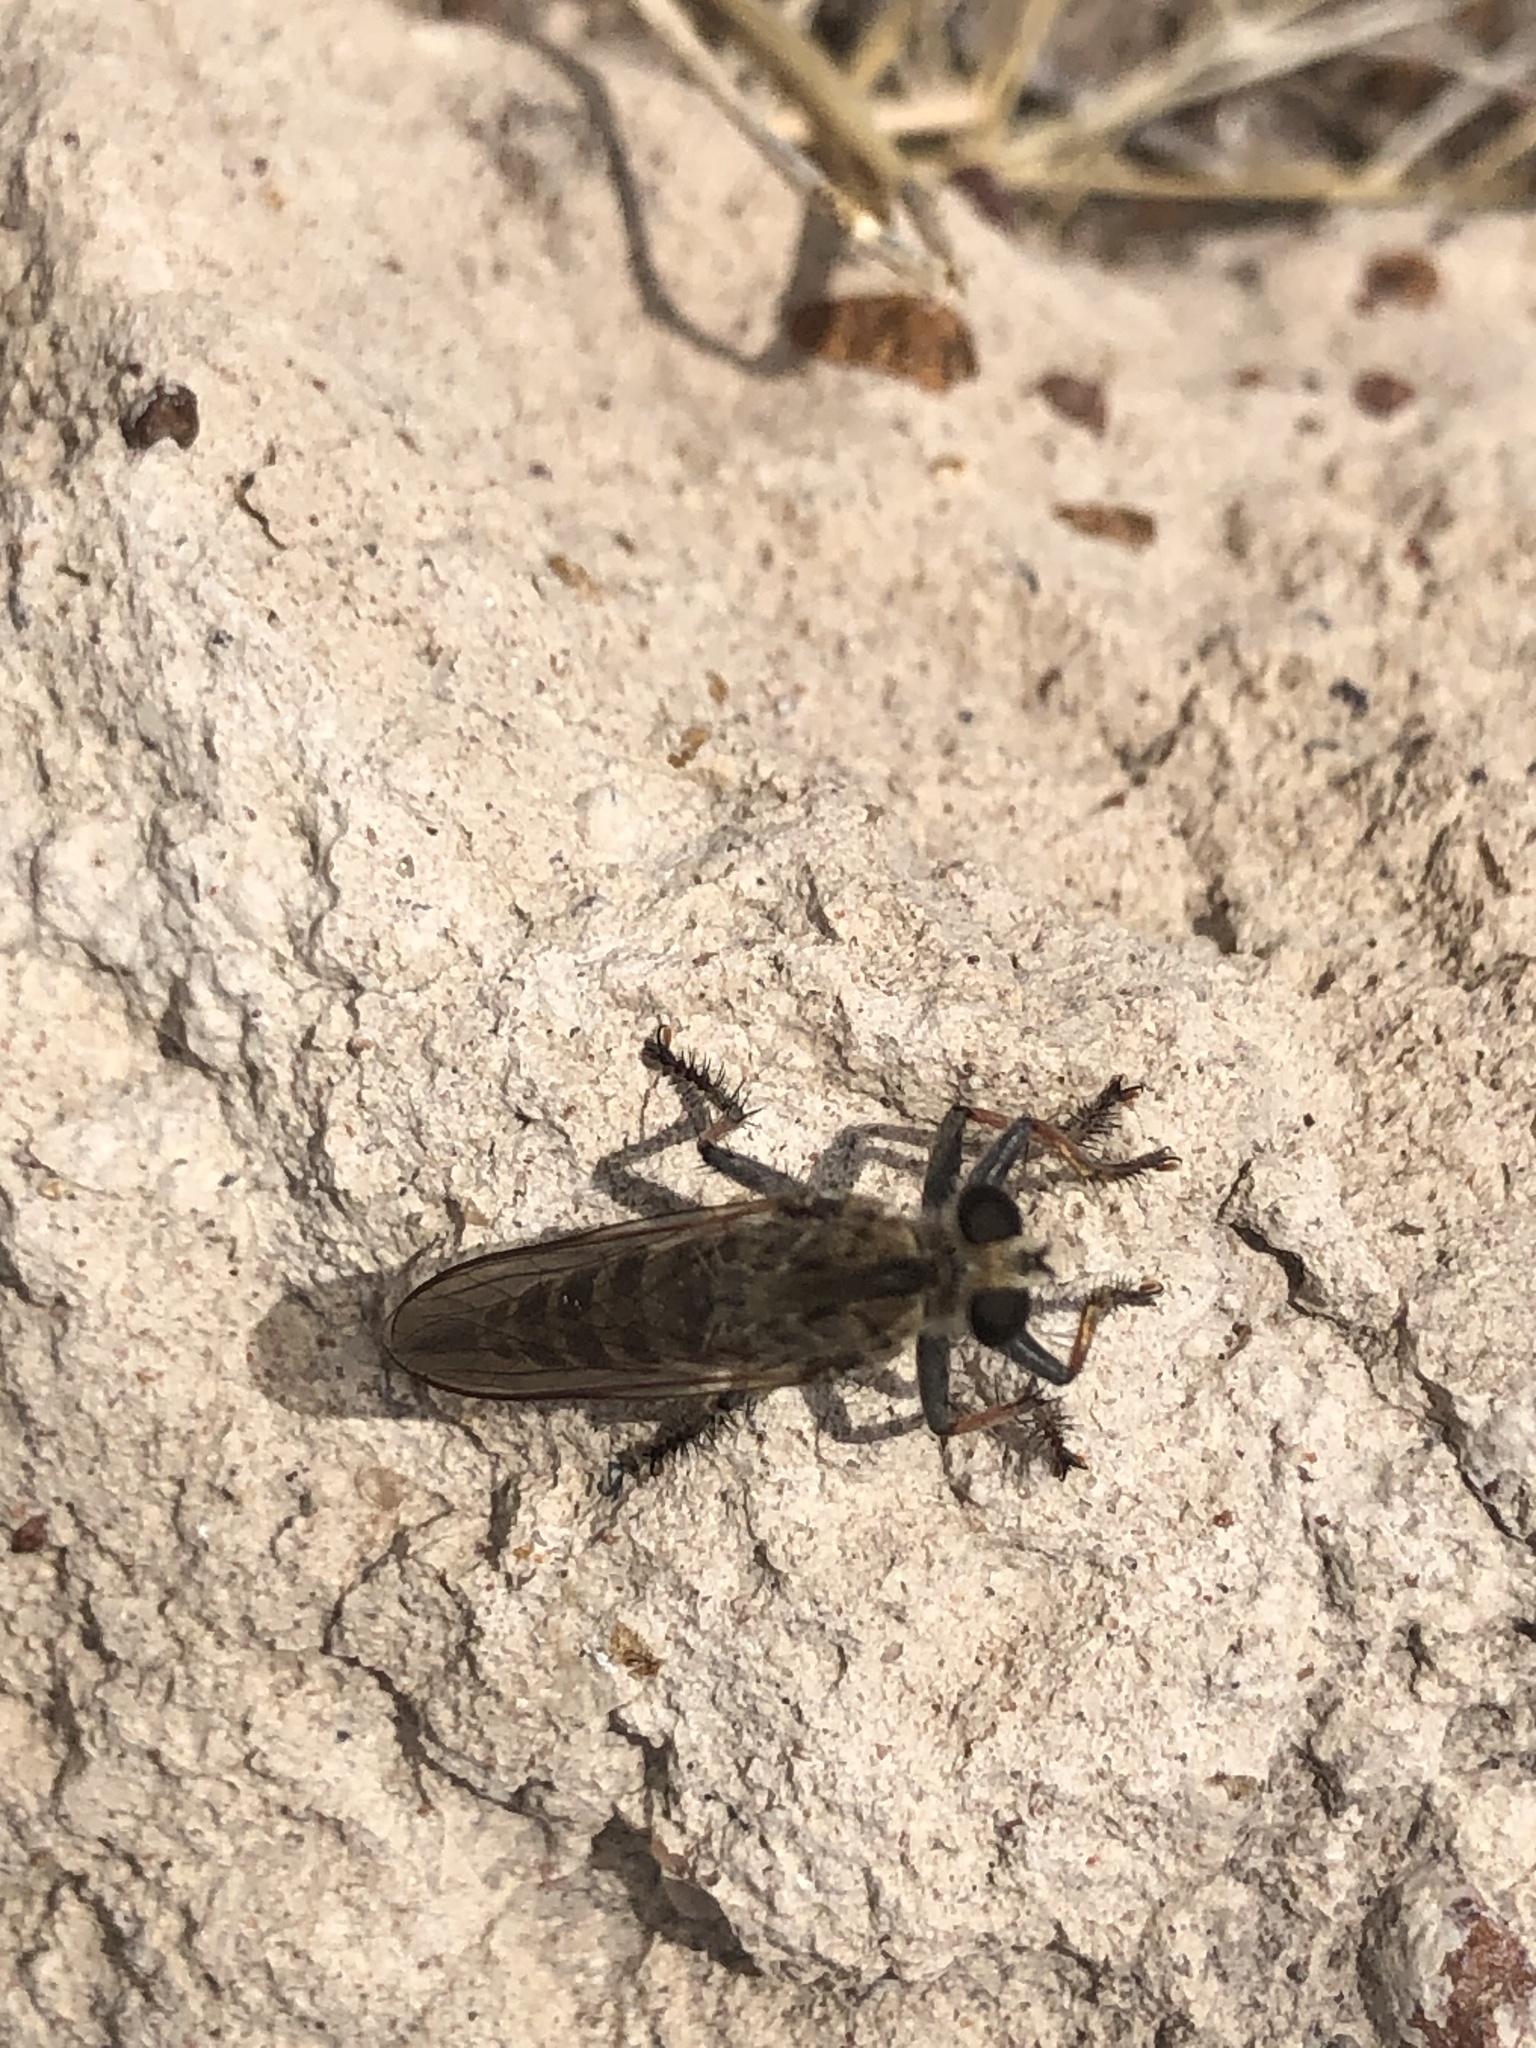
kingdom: Animalia
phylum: Arthropoda
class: Insecta
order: Diptera
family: Asilidae
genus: Efferia
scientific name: Efferia albibarbis
